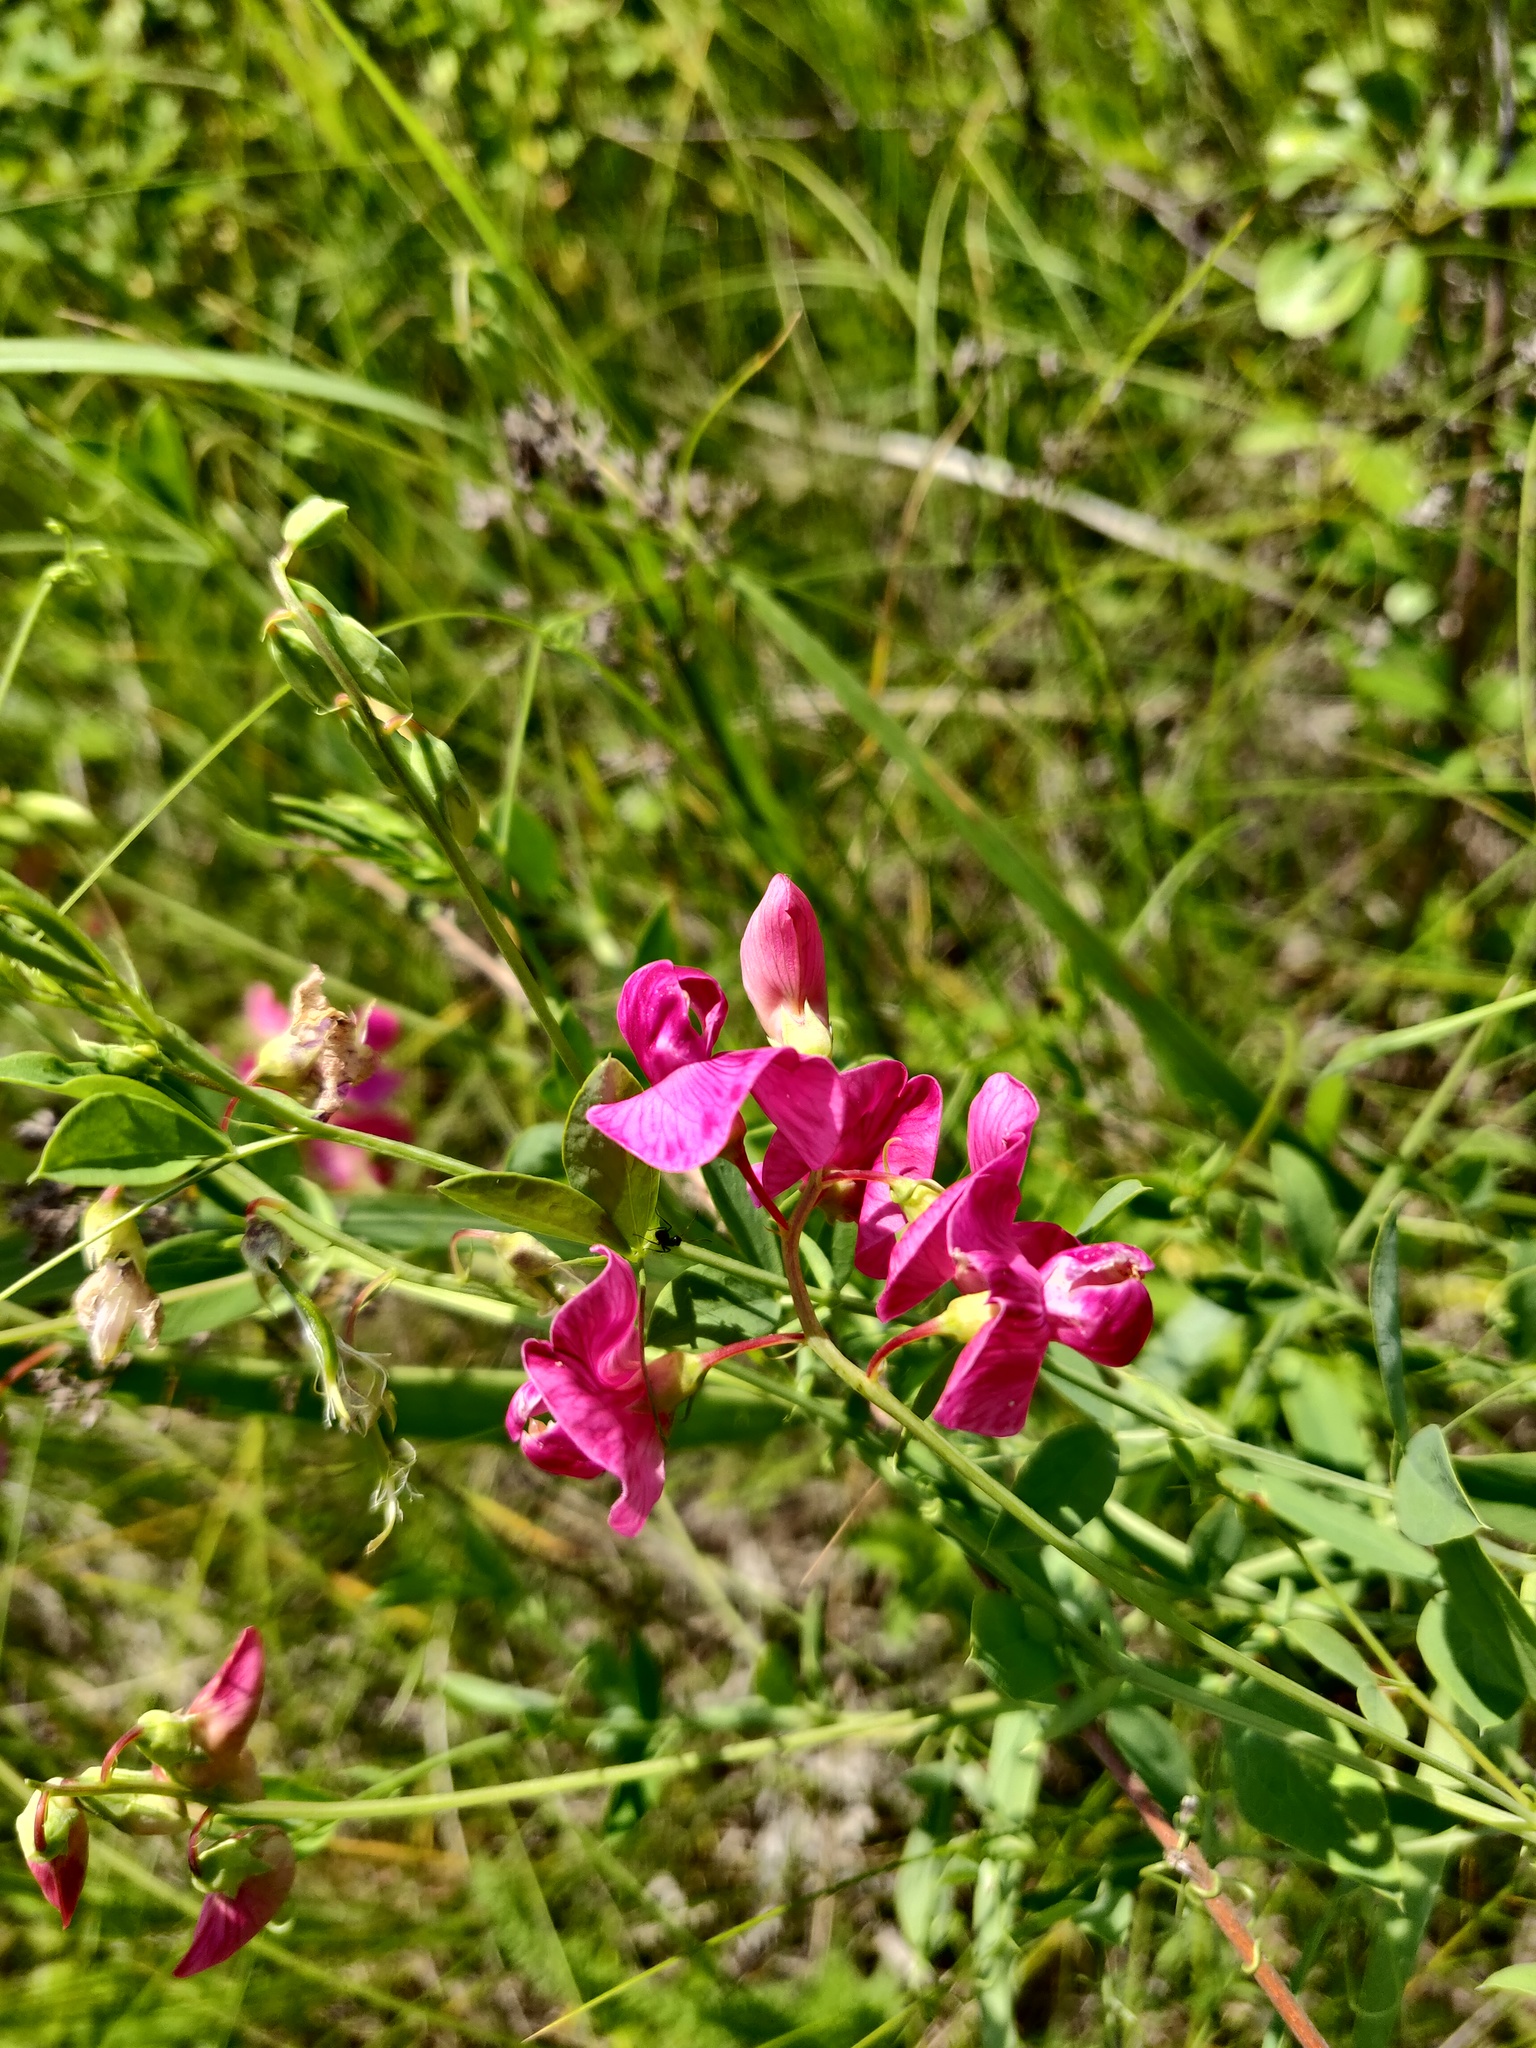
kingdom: Plantae
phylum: Tracheophyta
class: Magnoliopsida
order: Fabales
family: Fabaceae
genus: Lathyrus
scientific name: Lathyrus tuberosus
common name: Tuberous pea
